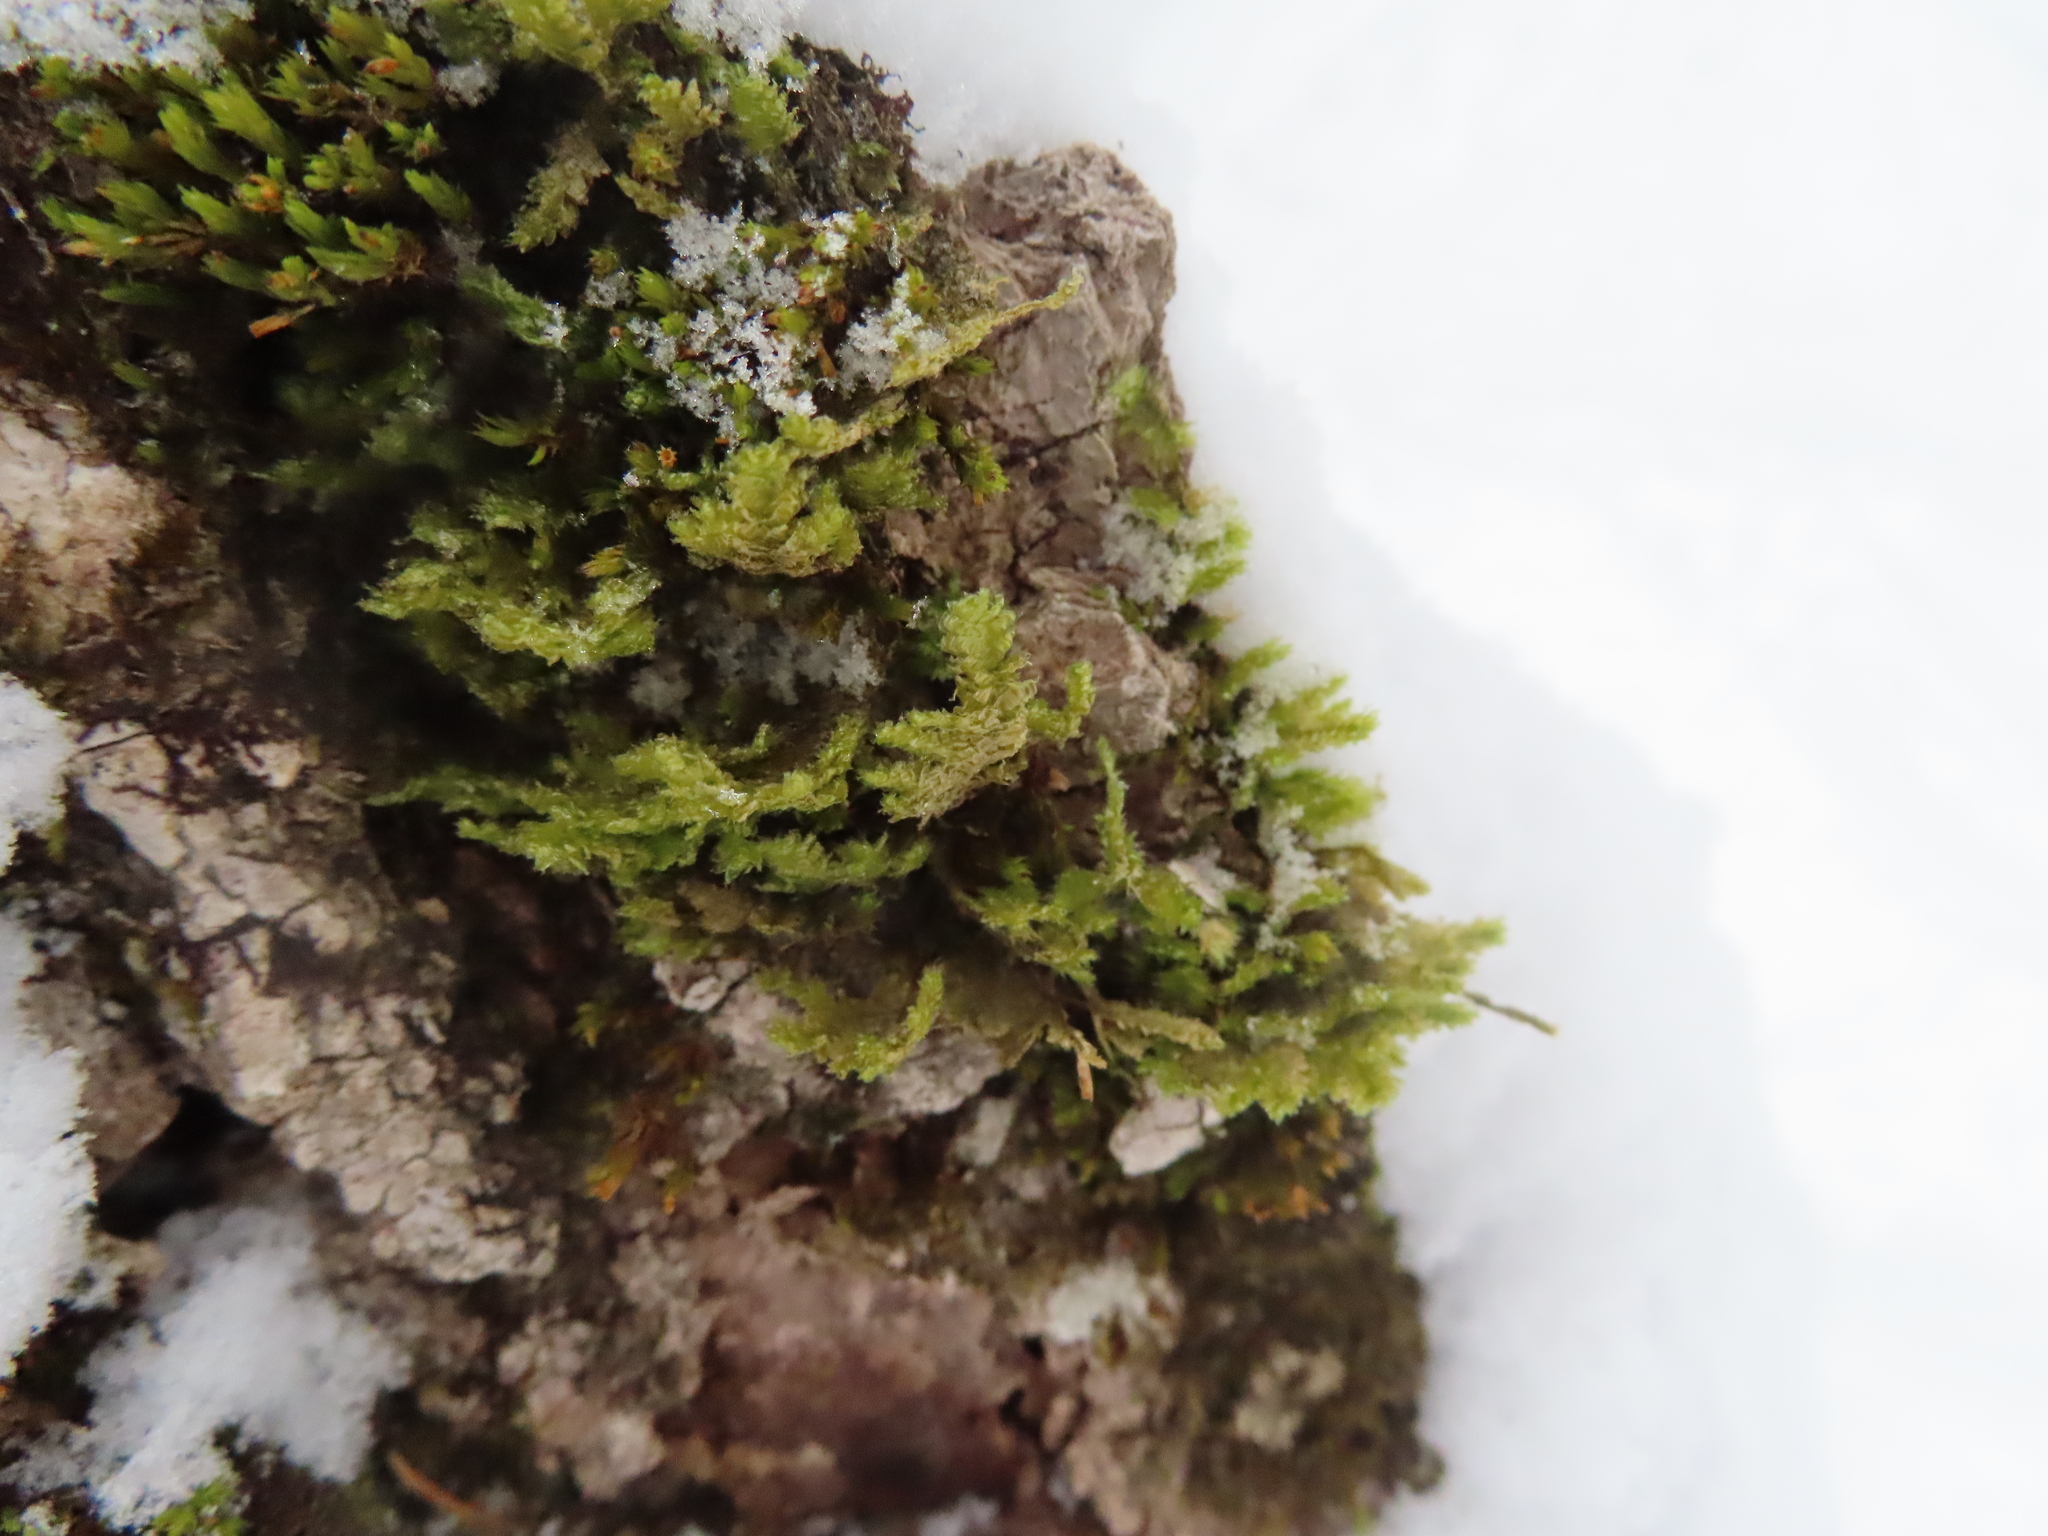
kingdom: Plantae
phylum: Bryophyta
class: Bryopsida
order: Hypnales
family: Neckeraceae
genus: Neckera
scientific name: Neckera pennata
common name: Feathery neckera
